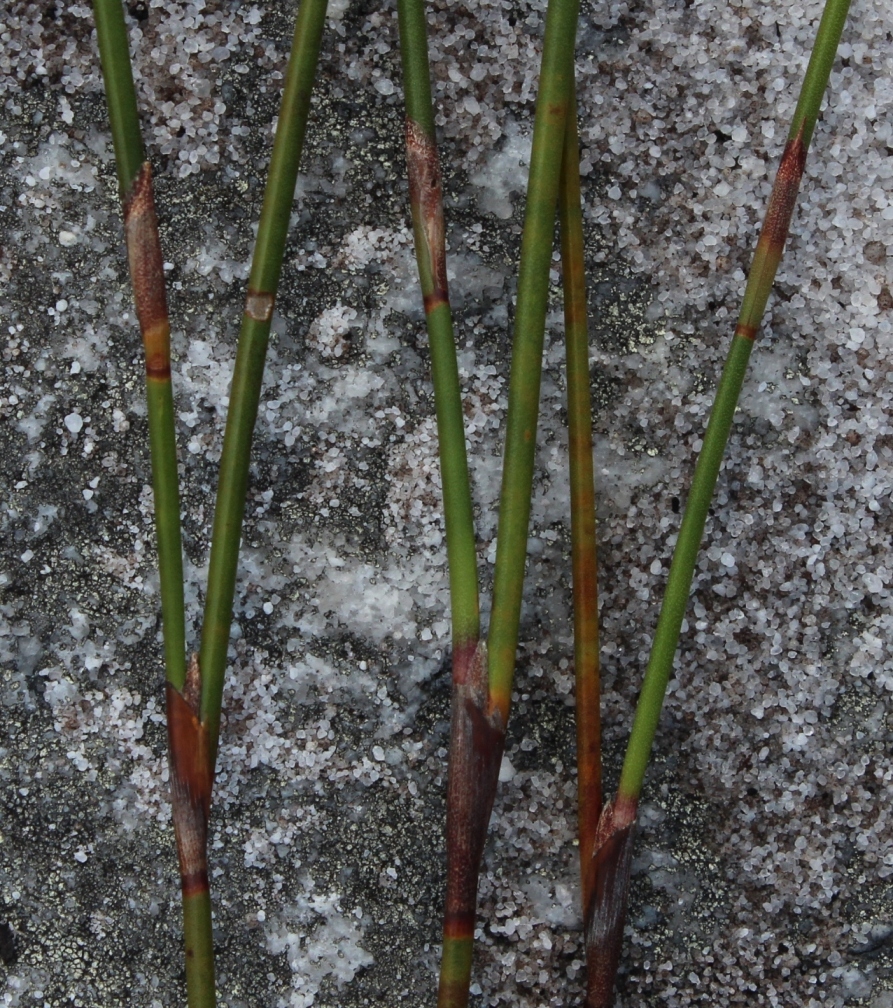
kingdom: Plantae
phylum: Tracheophyta
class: Liliopsida
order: Poales
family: Restionaceae
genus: Restio
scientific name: Restio bifurcus
